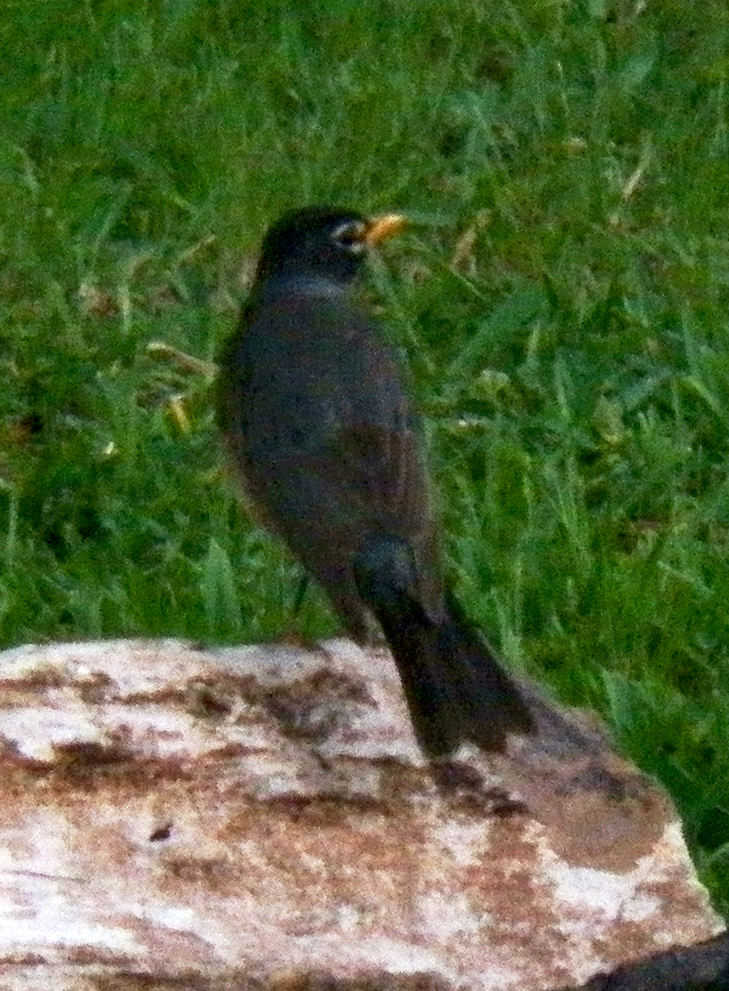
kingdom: Animalia
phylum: Chordata
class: Aves
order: Passeriformes
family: Turdidae
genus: Turdus
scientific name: Turdus migratorius
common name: American robin
